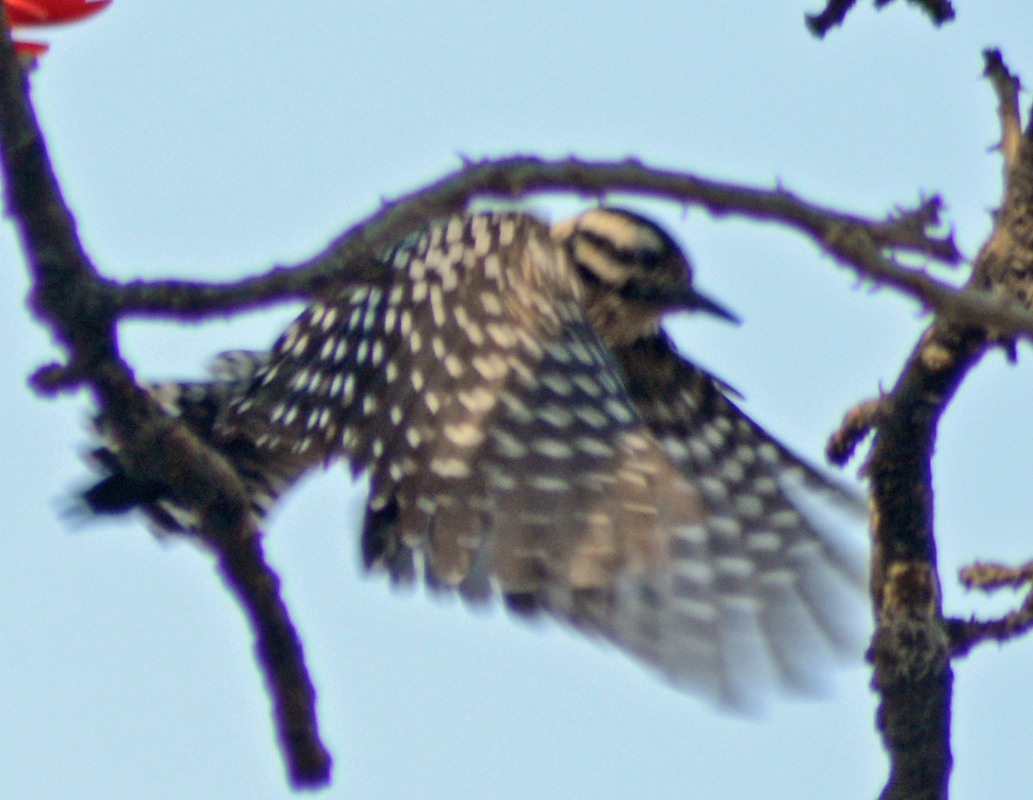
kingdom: Animalia
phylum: Chordata
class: Aves
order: Piciformes
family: Picidae
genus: Dryobates
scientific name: Dryobates scalaris
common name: Ladder-backed woodpecker
